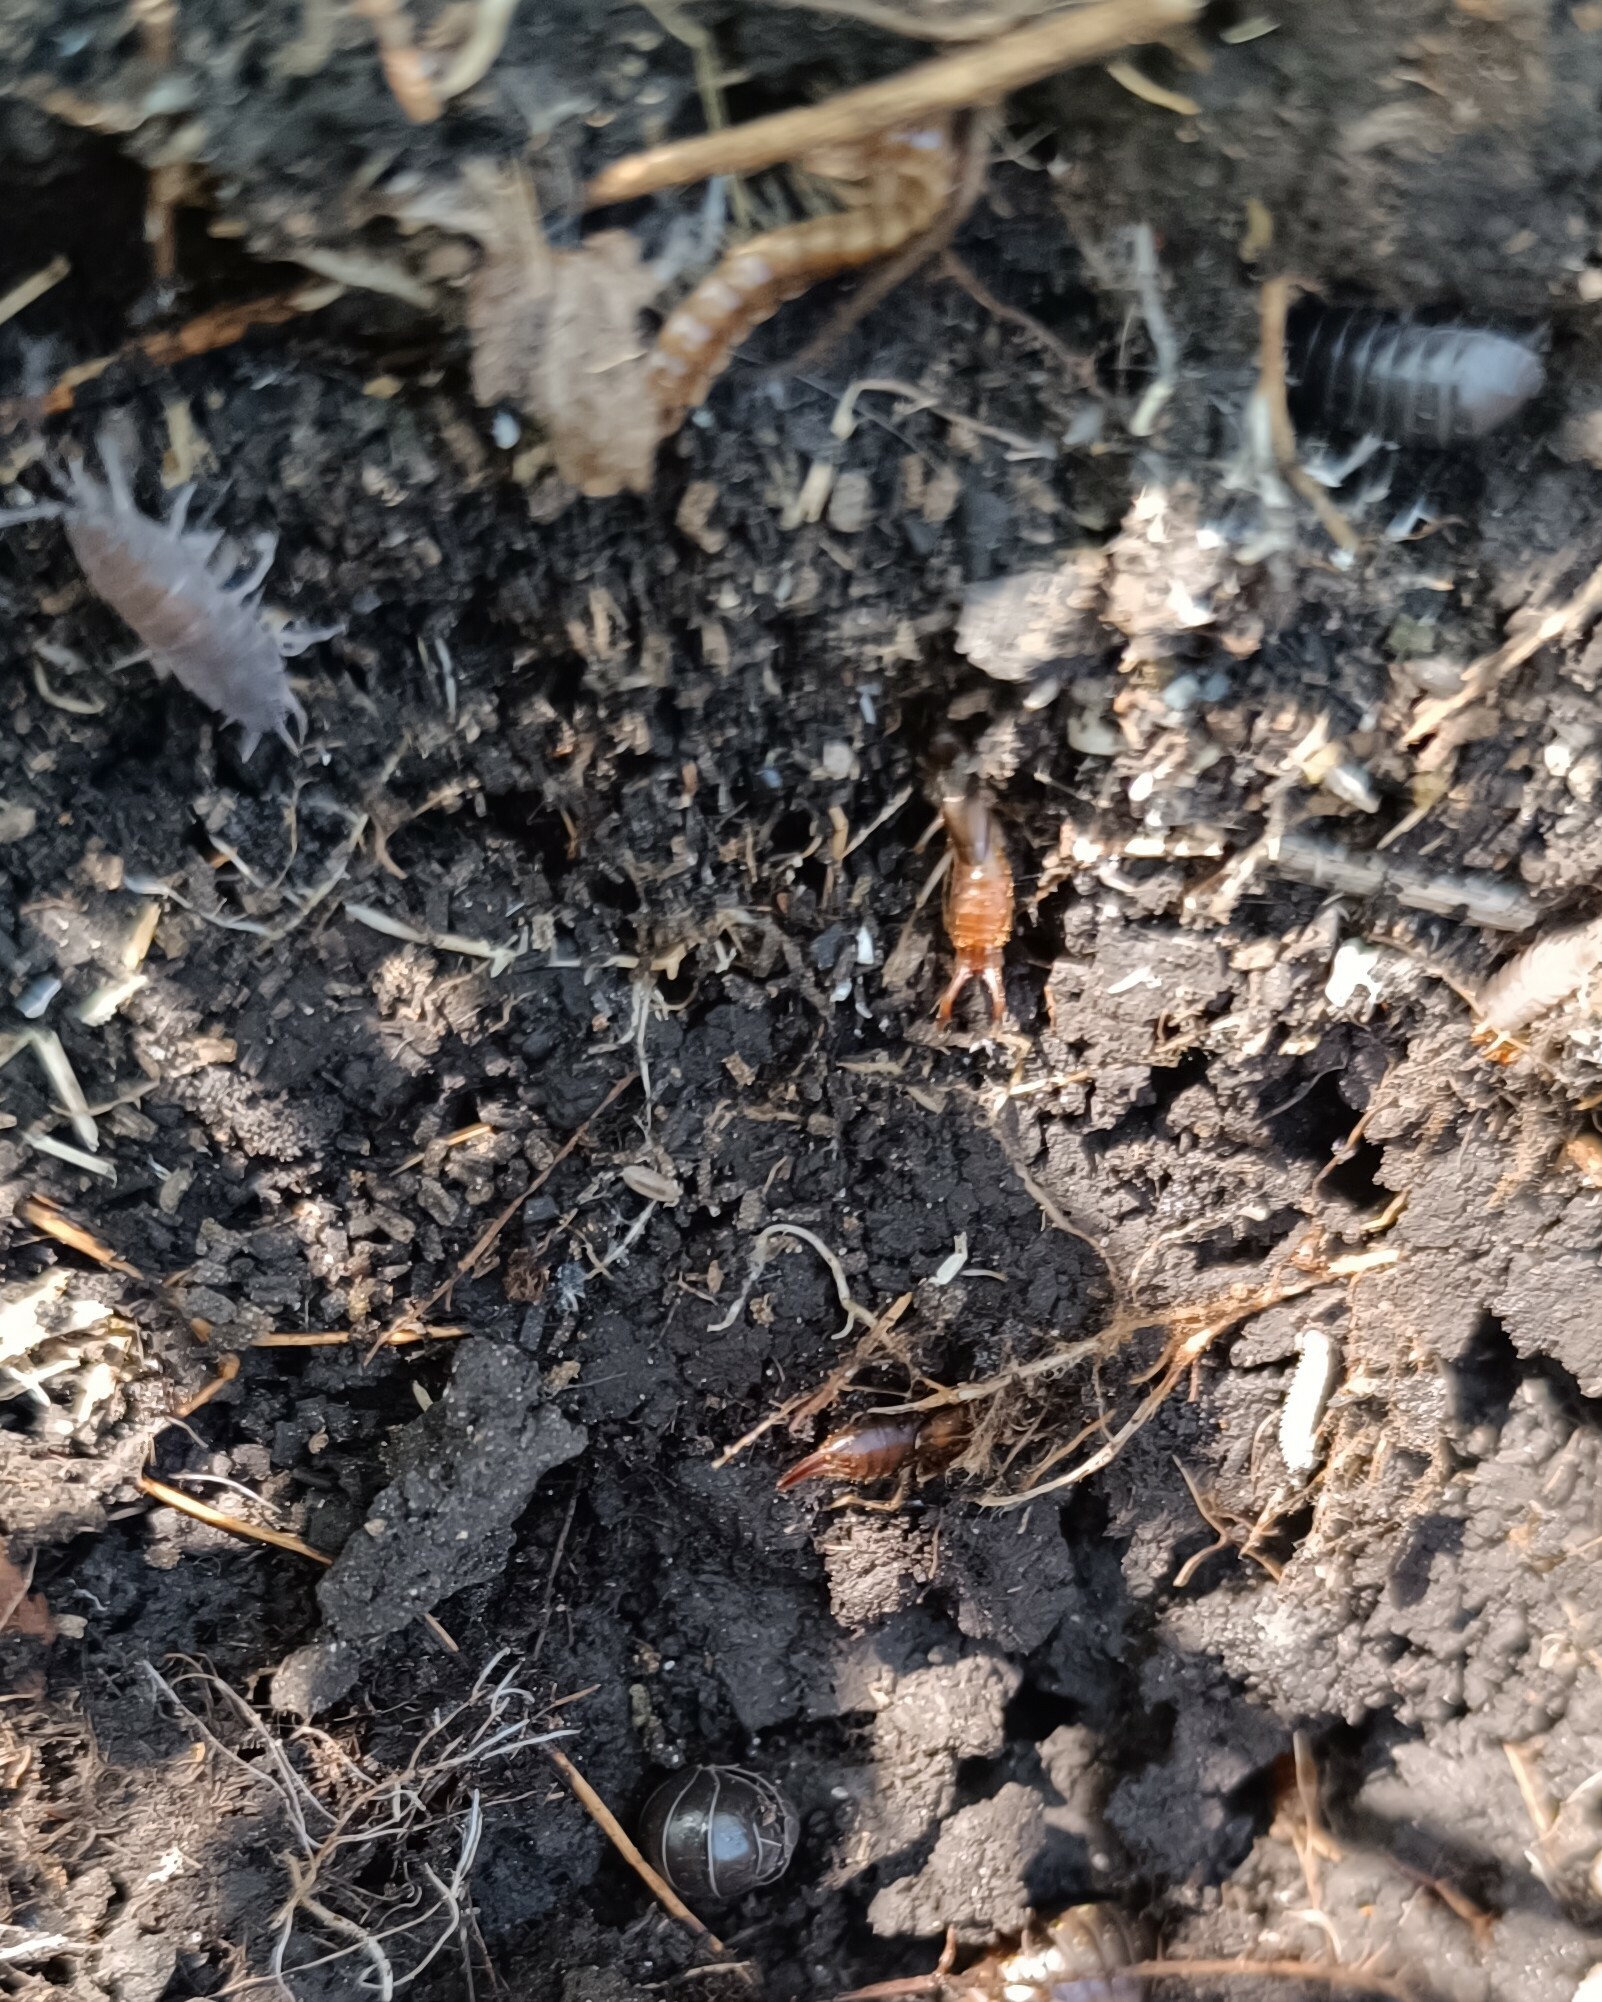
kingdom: Animalia
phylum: Arthropoda
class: Malacostraca
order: Isopoda
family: Armadillidiidae
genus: Armadillidium
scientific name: Armadillidium vulgare
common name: Common pill woodlouse
